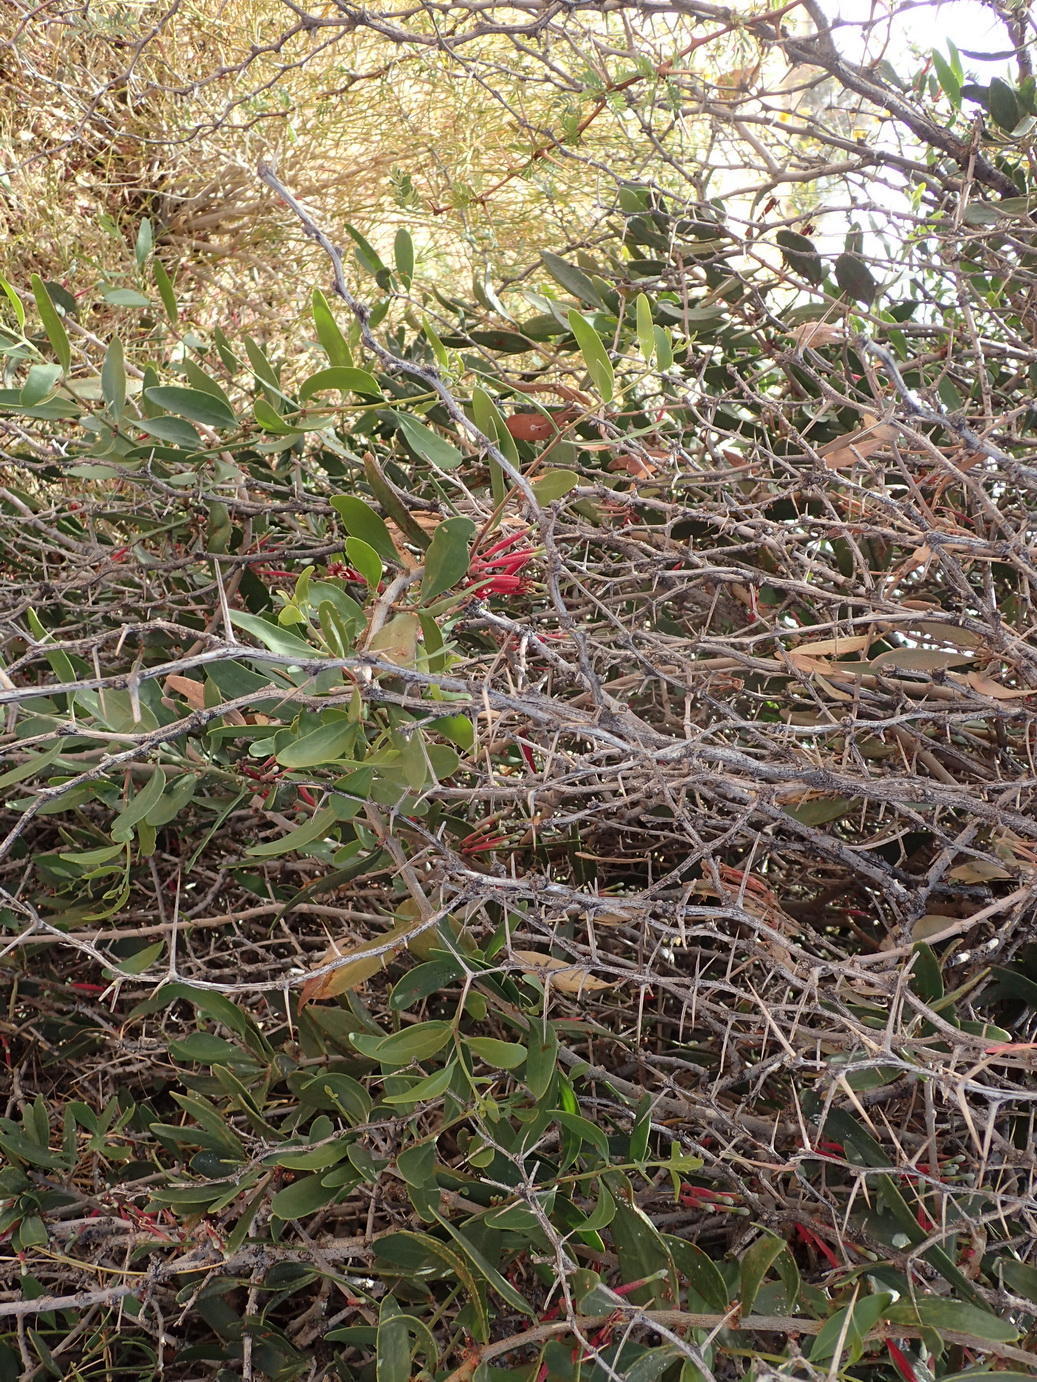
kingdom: Plantae
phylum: Tracheophyta
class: Magnoliopsida
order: Santalales
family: Loranthaceae
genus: Tapinanthus
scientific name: Tapinanthus oleifolius
